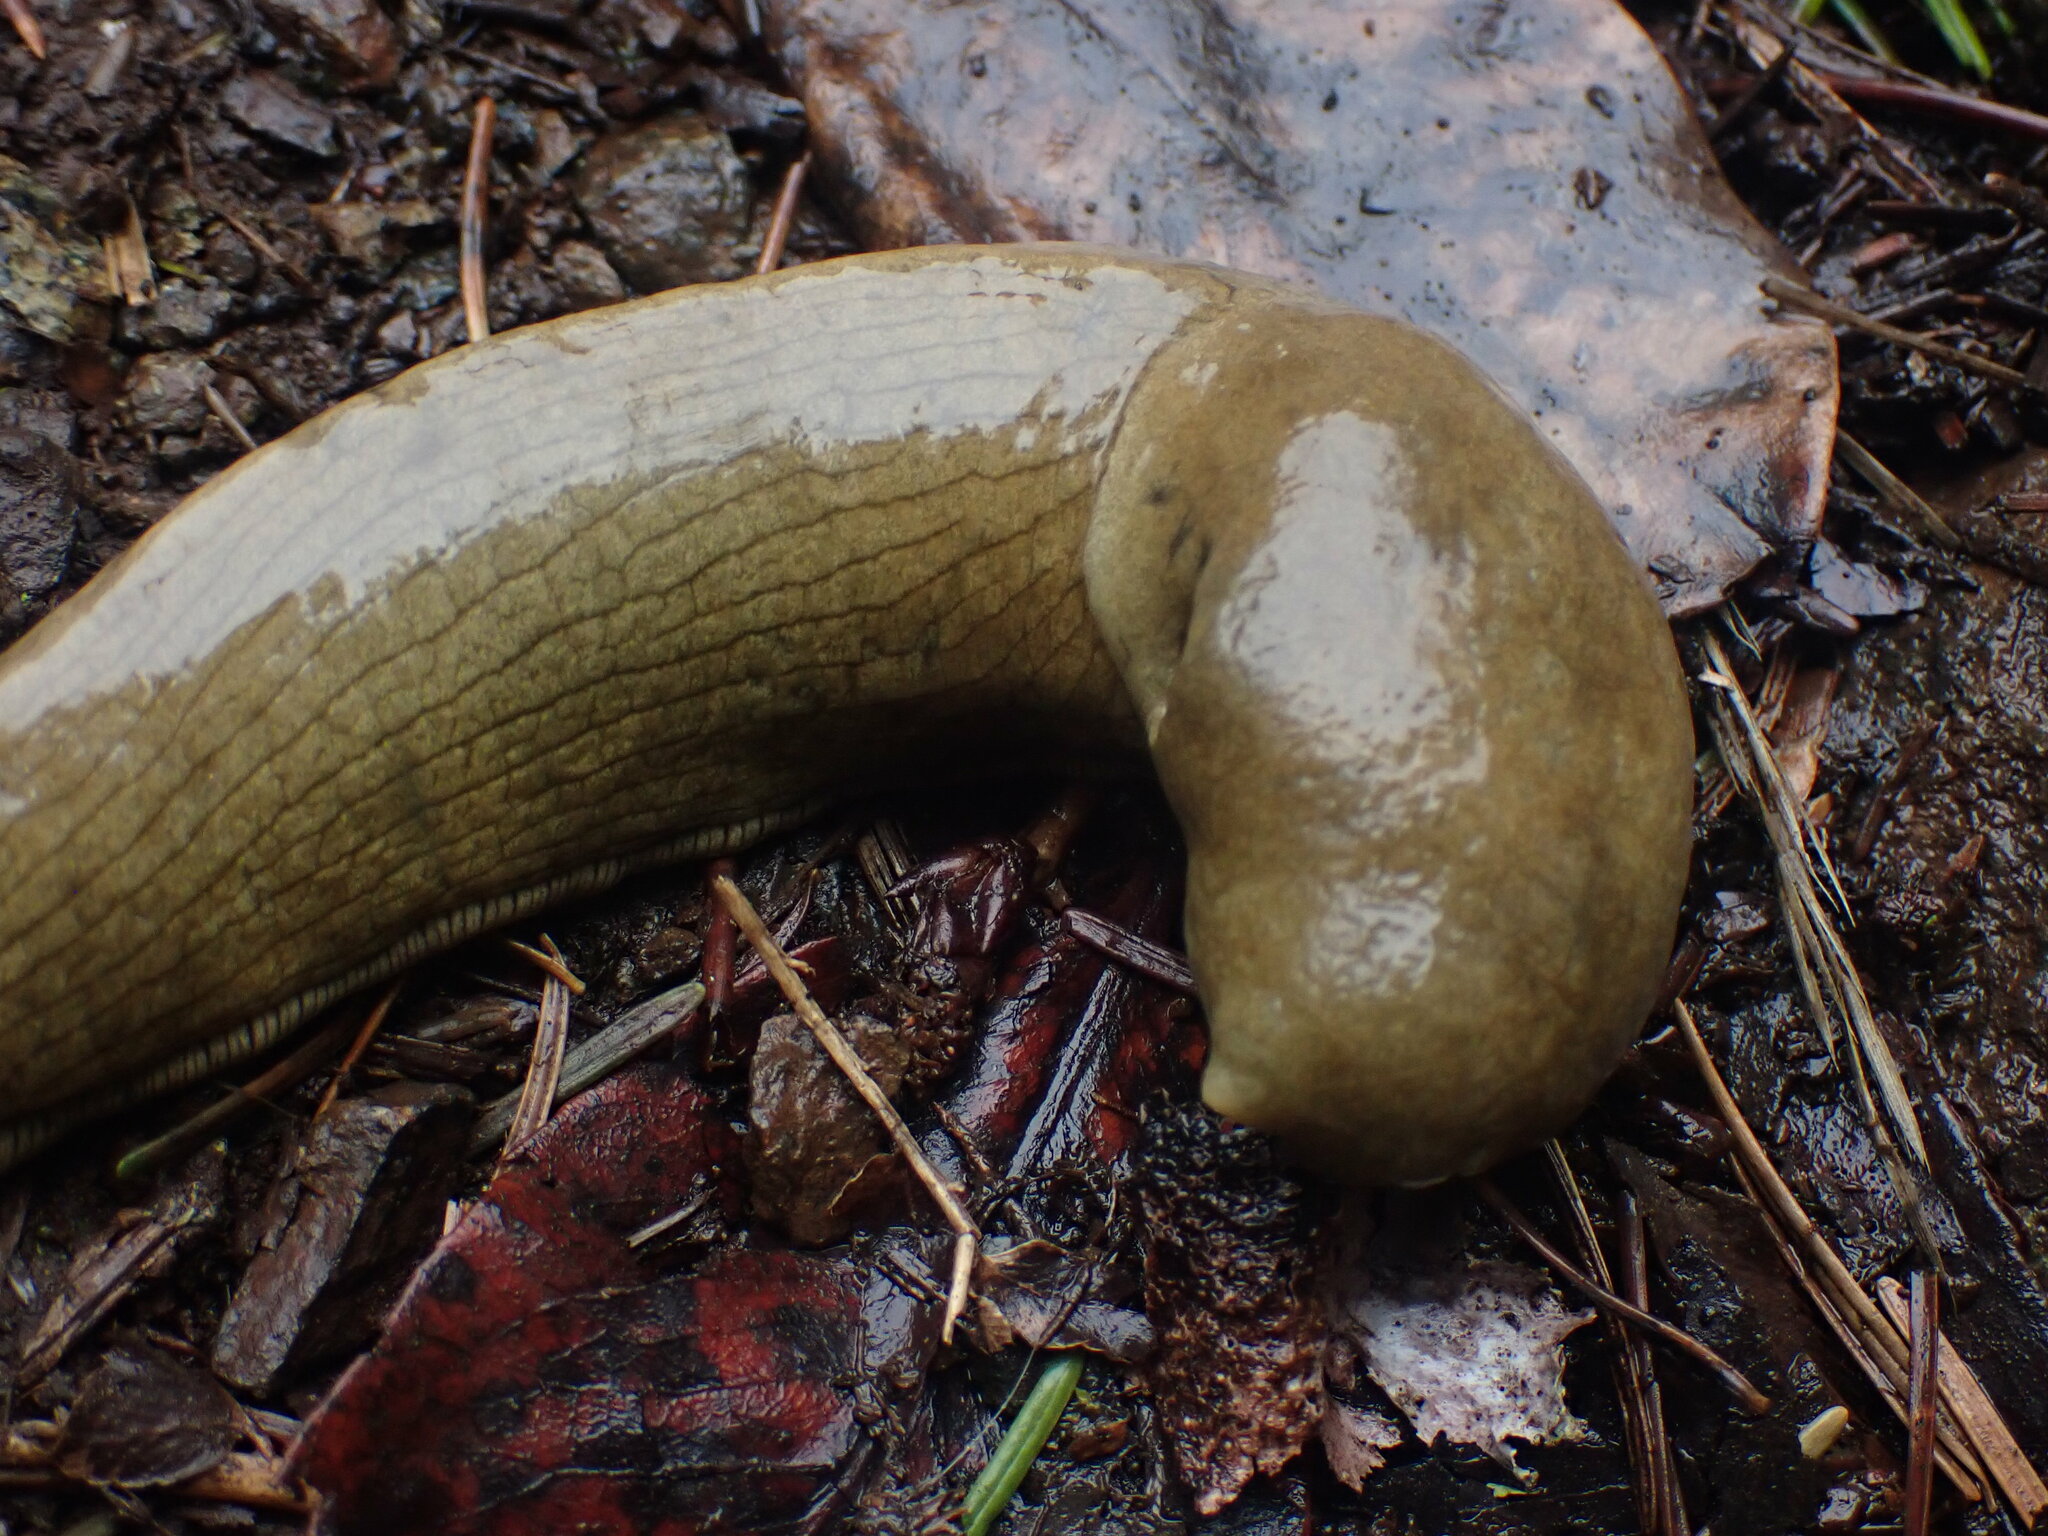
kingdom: Animalia
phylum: Mollusca
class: Gastropoda
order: Stylommatophora
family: Ariolimacidae
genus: Ariolimax
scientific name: Ariolimax columbianus
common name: Pacific banana slug
